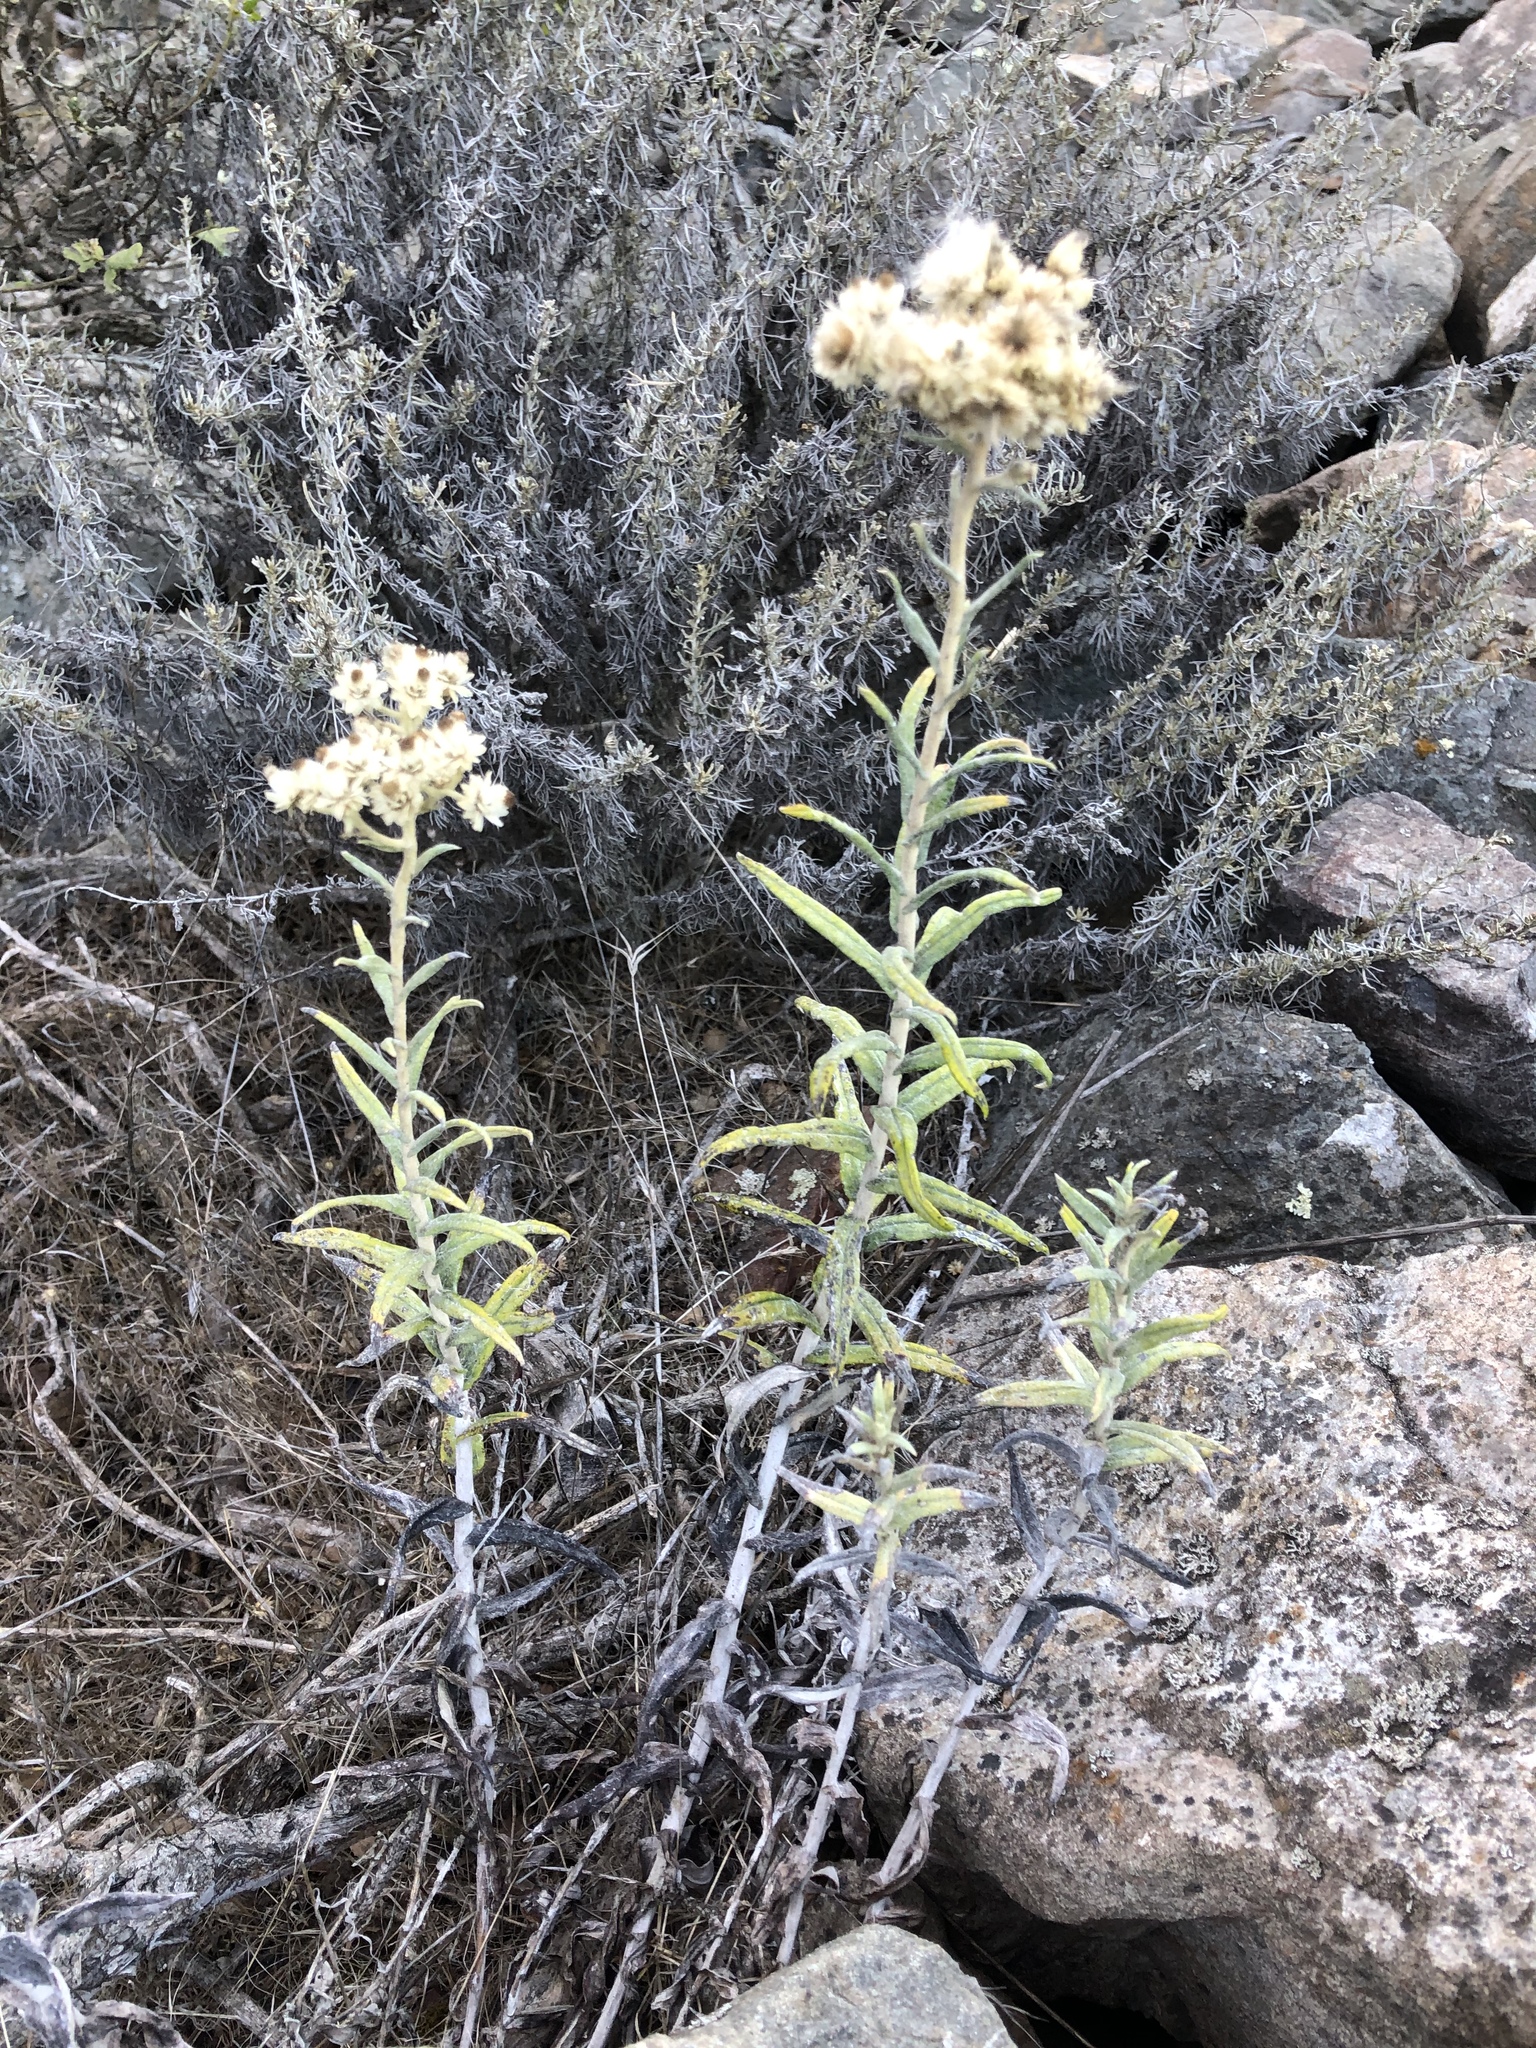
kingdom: Plantae
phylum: Tracheophyta
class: Magnoliopsida
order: Asterales
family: Asteraceae
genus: Anaphalis
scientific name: Anaphalis margaritacea
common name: Pearly everlasting
